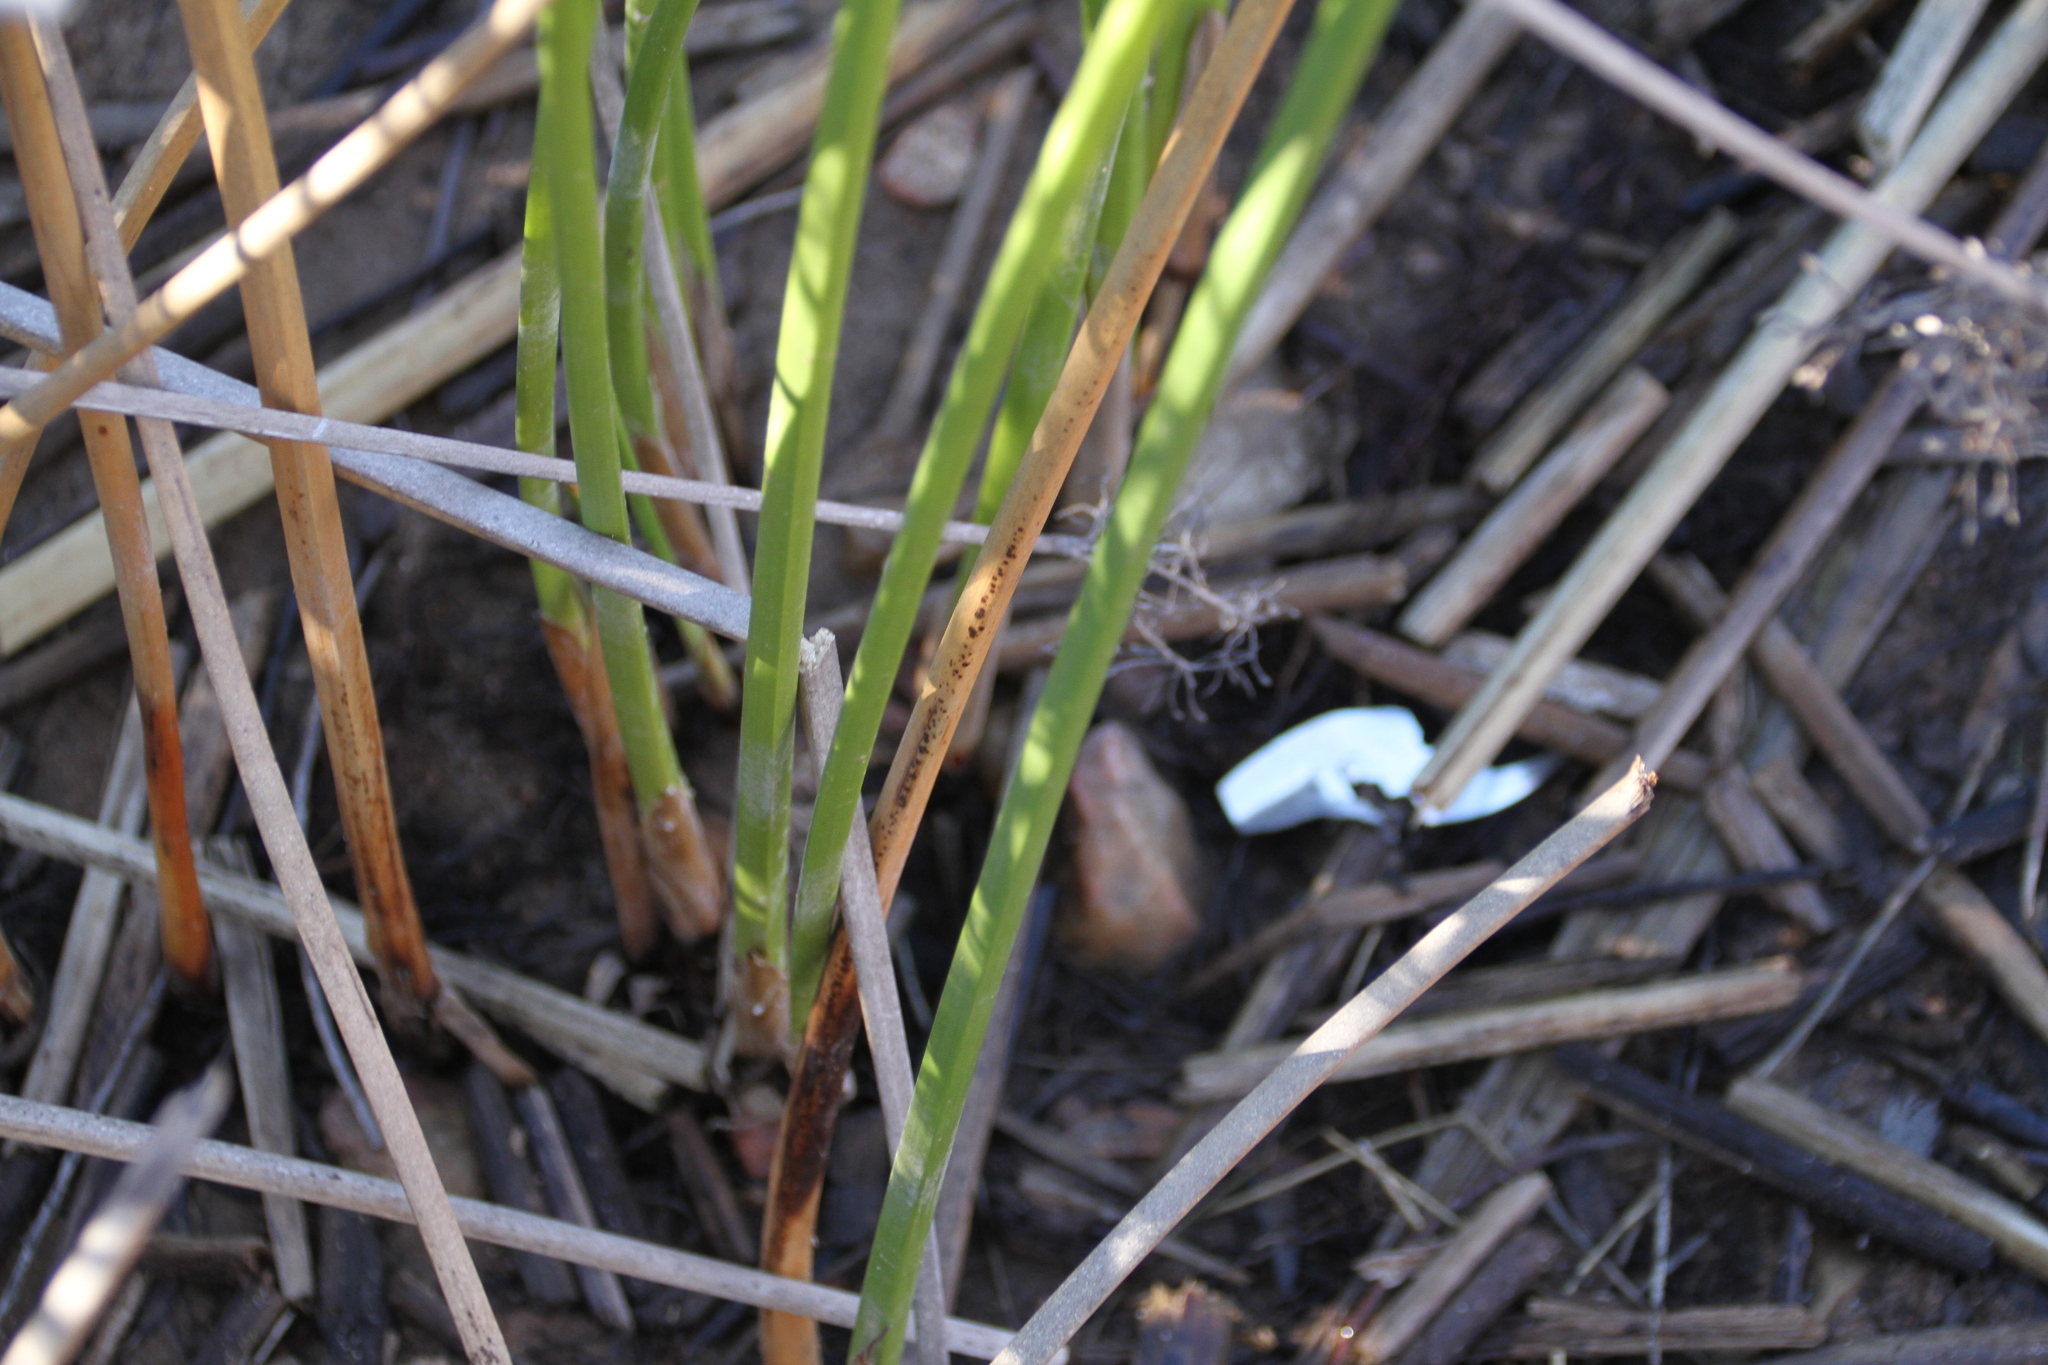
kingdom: Plantae
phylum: Tracheophyta
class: Liliopsida
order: Poales
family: Cyperaceae
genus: Schoenoplectus
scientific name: Schoenoplectus californicus
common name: California bulrush
